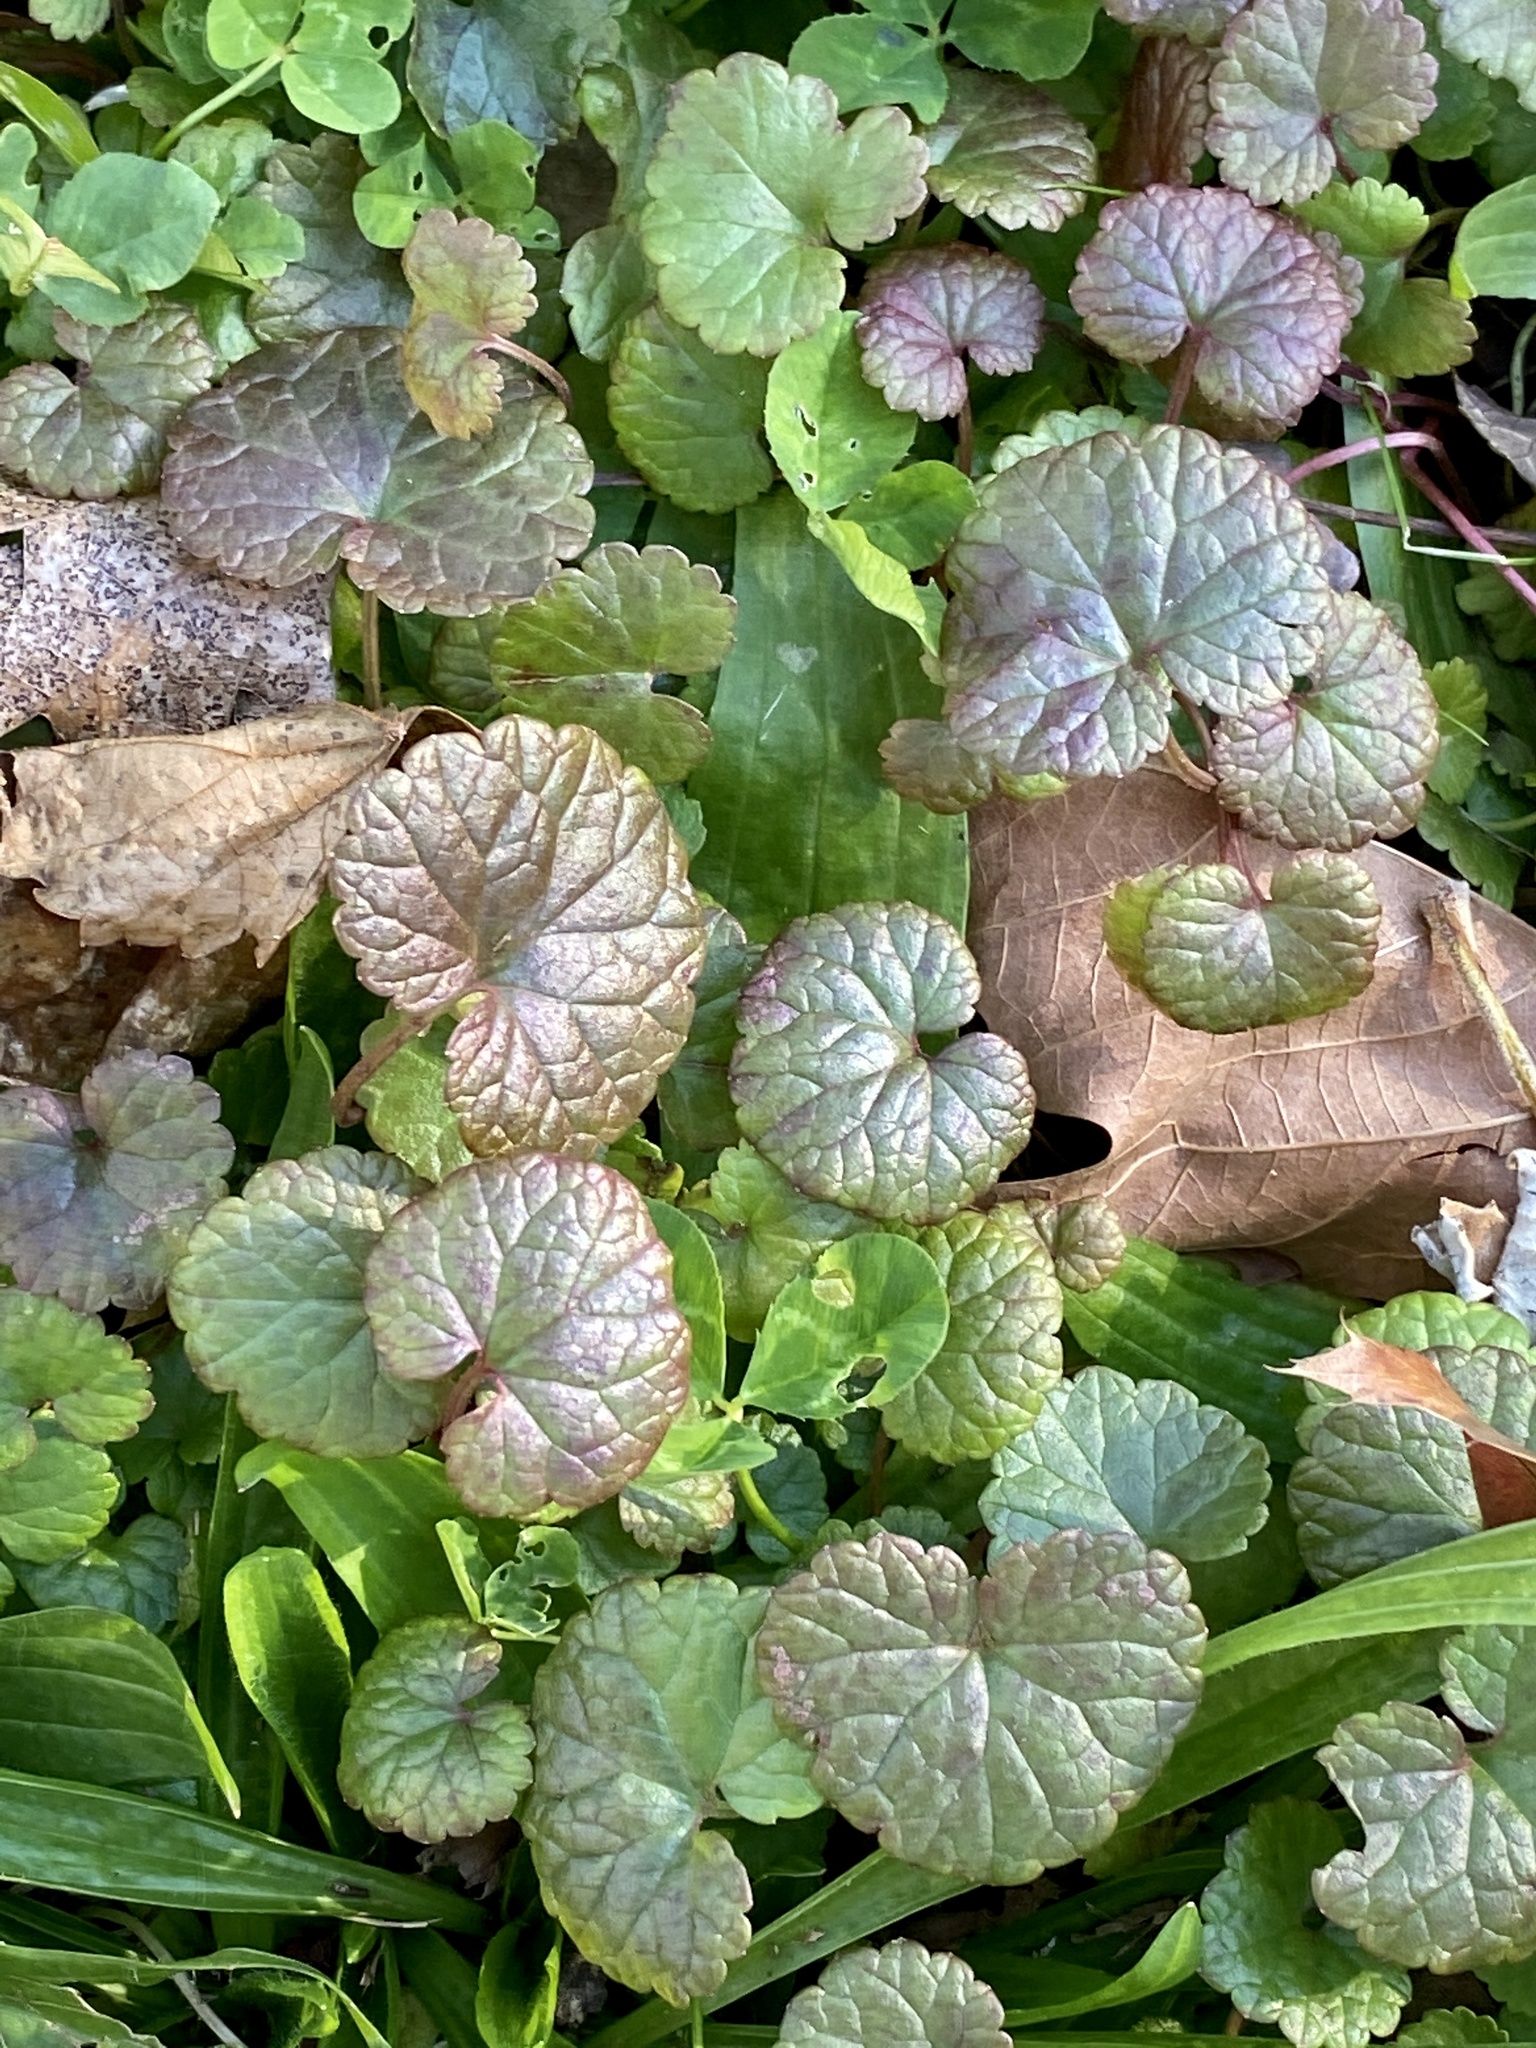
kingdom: Plantae
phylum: Tracheophyta
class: Magnoliopsida
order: Lamiales
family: Lamiaceae
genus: Glechoma
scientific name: Glechoma hederacea
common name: Ground ivy
